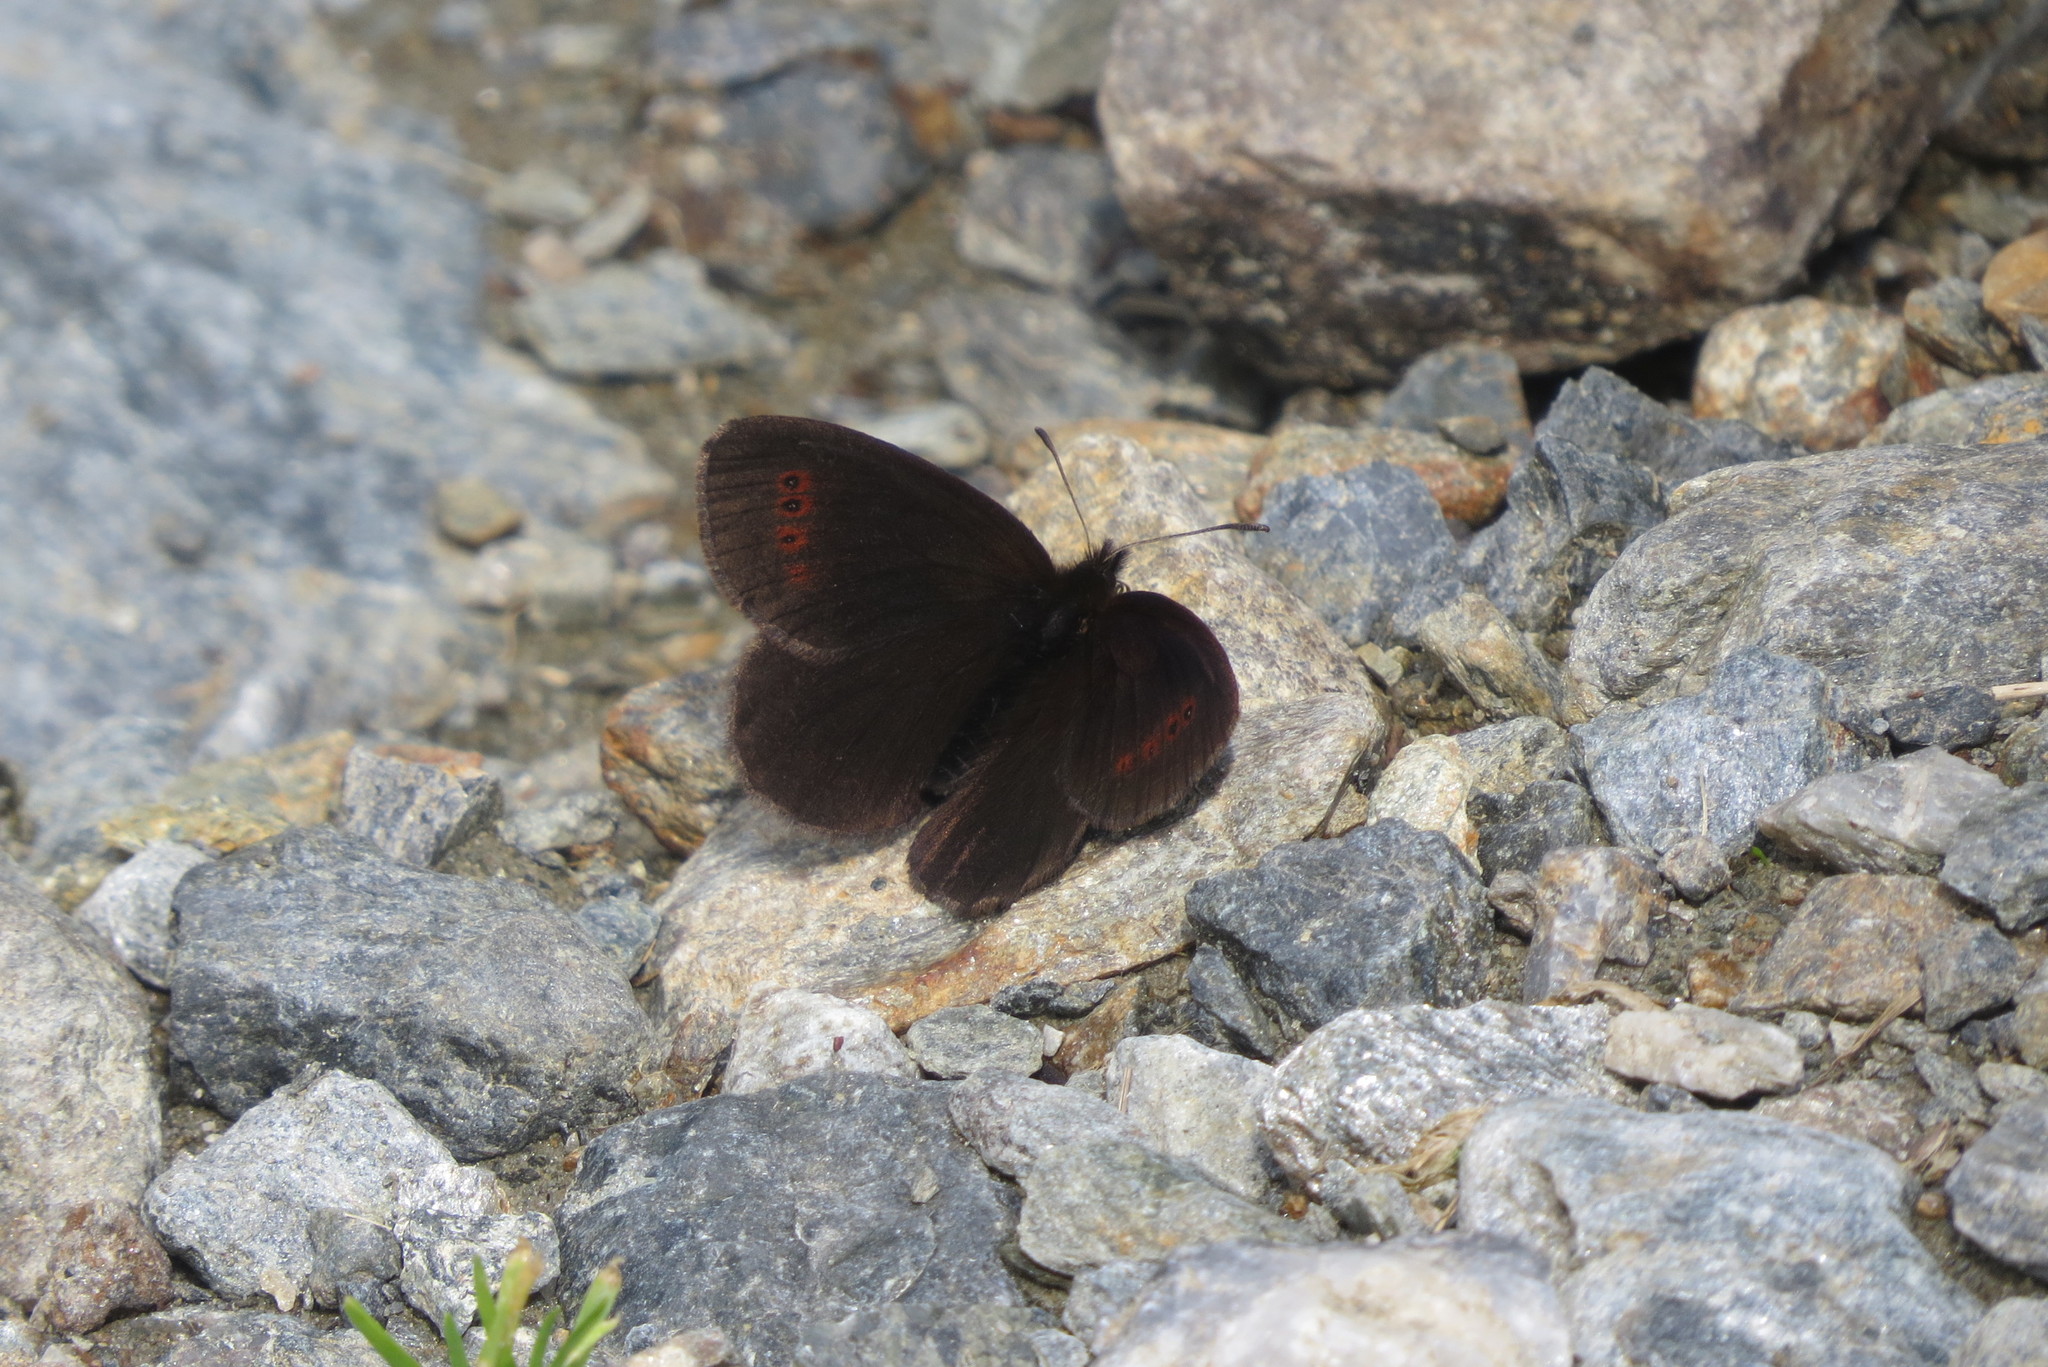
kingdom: Animalia
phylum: Arthropoda
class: Insecta
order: Lepidoptera
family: Nymphalidae
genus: Erebia
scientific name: Erebia pronoe
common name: Water ringlet
